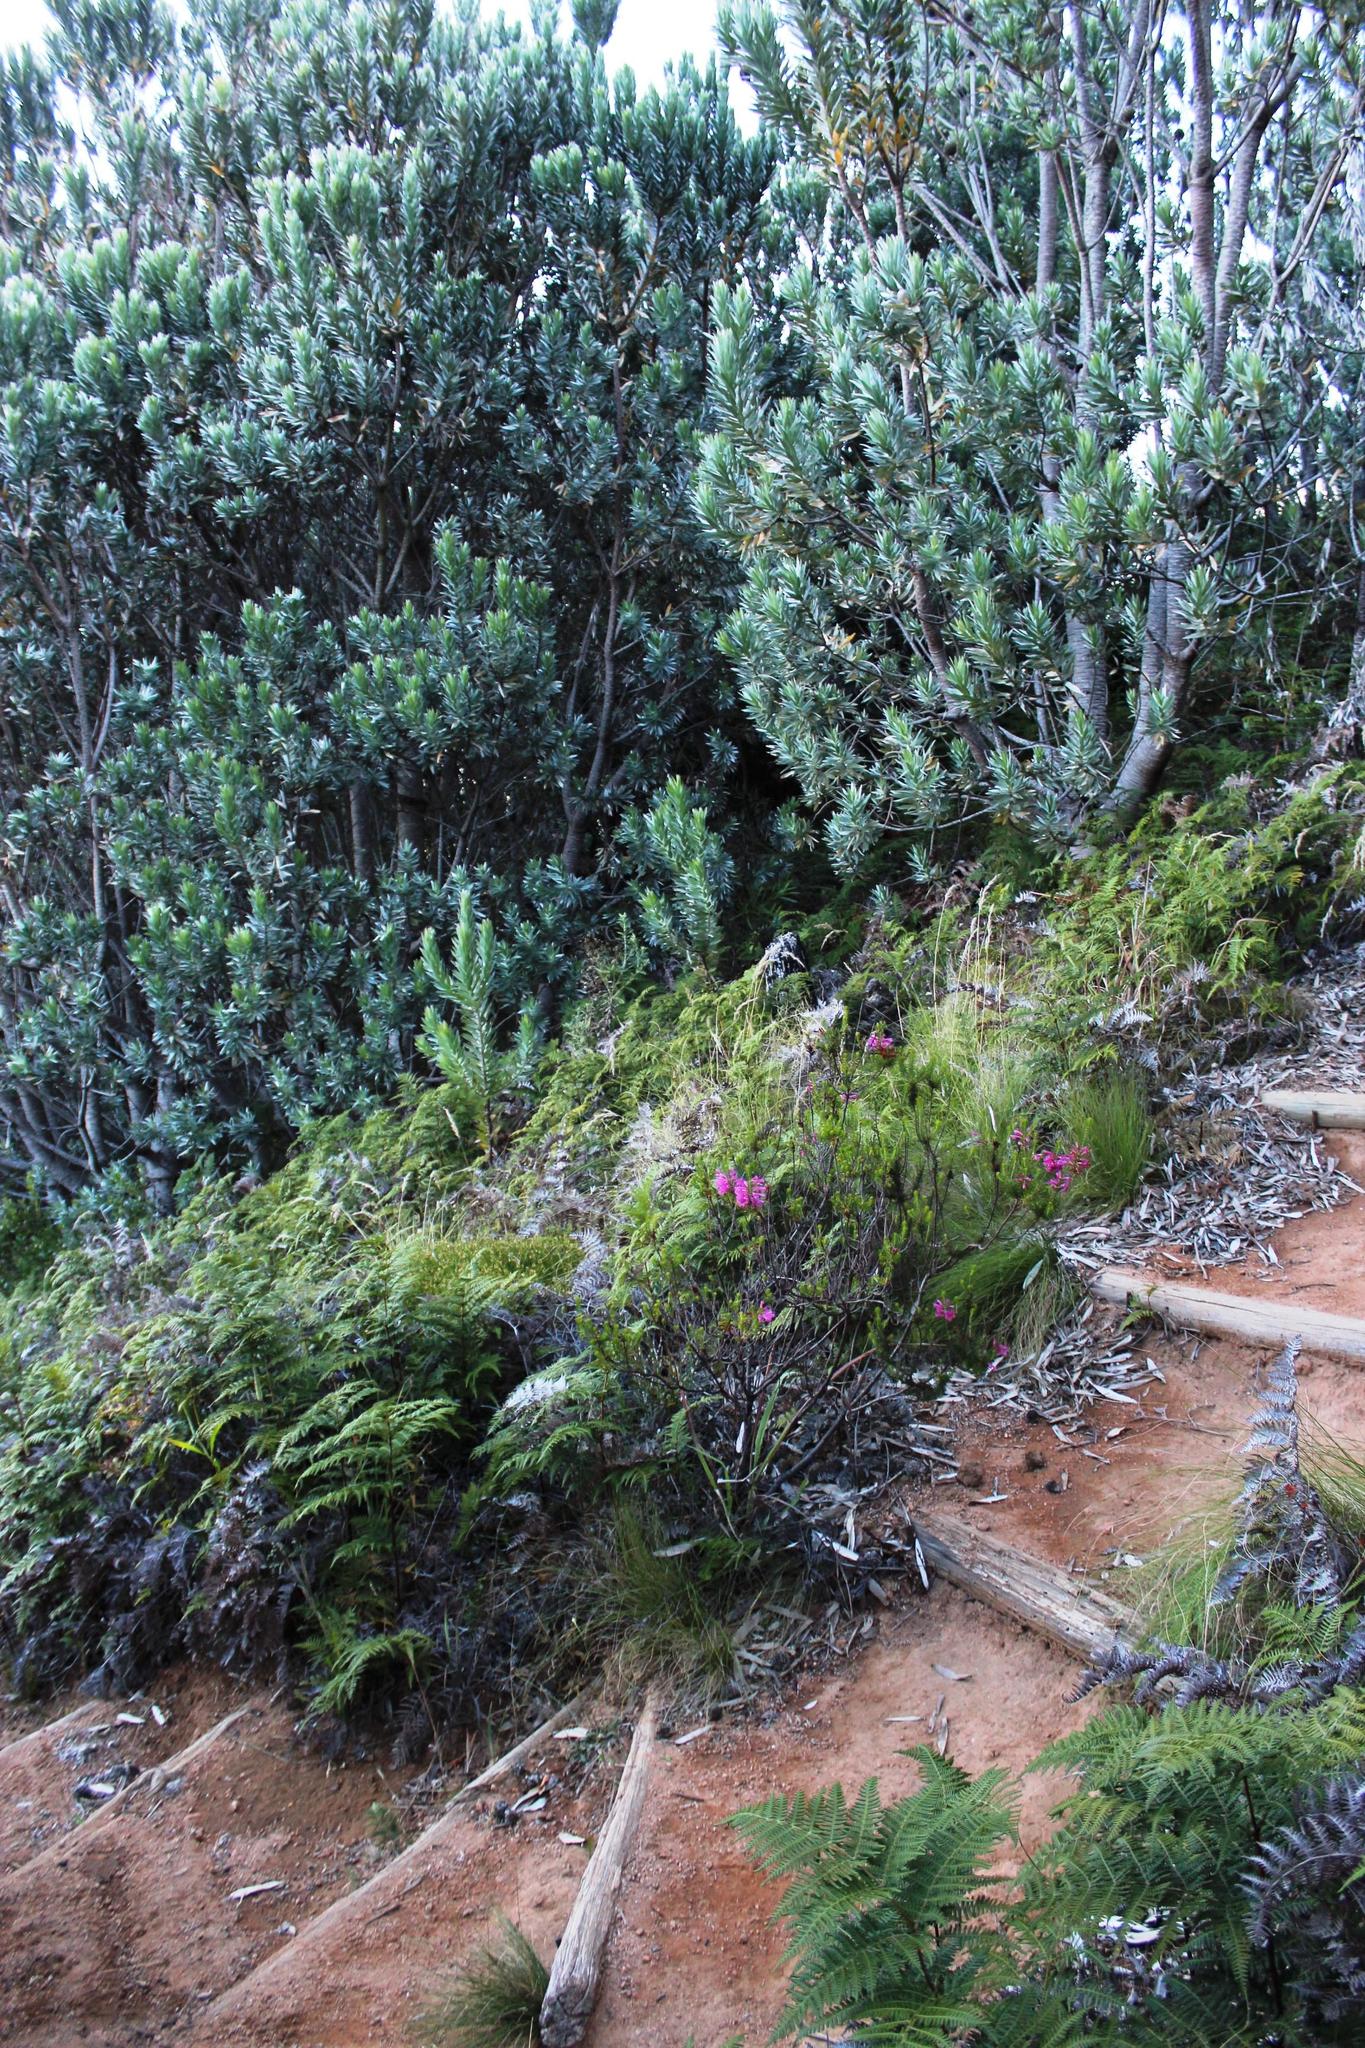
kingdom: Plantae
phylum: Tracheophyta
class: Magnoliopsida
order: Ericales
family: Ericaceae
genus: Erica
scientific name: Erica abietina
